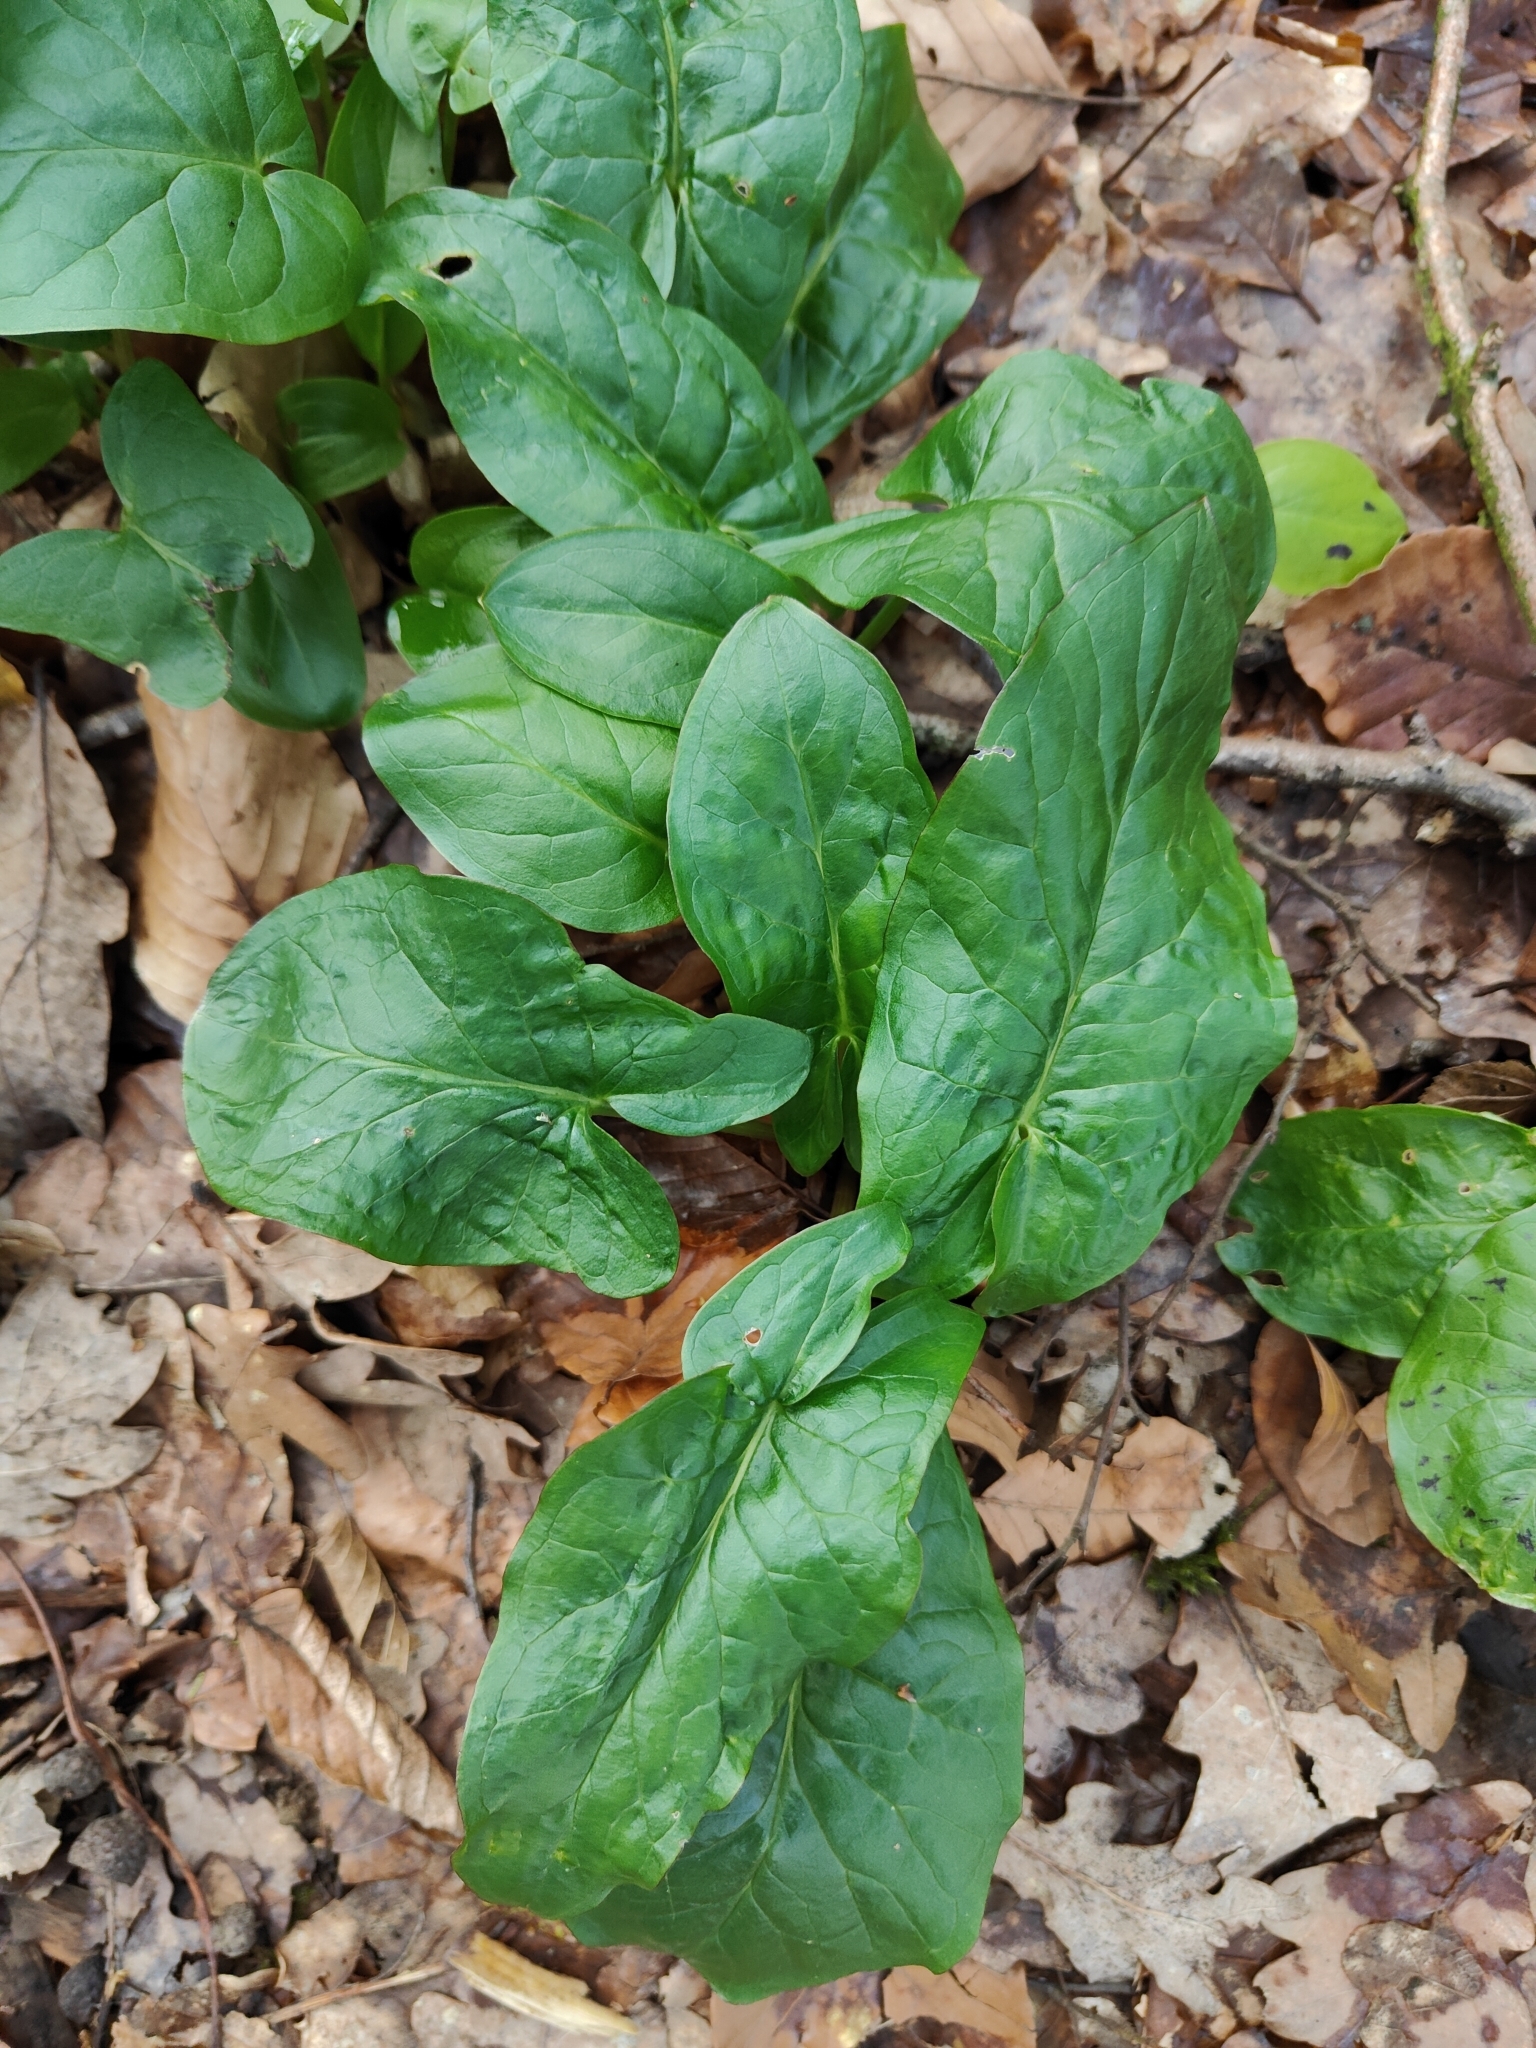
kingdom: Plantae
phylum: Tracheophyta
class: Liliopsida
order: Alismatales
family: Araceae
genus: Arum
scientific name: Arum maculatum
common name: Lords-and-ladies
